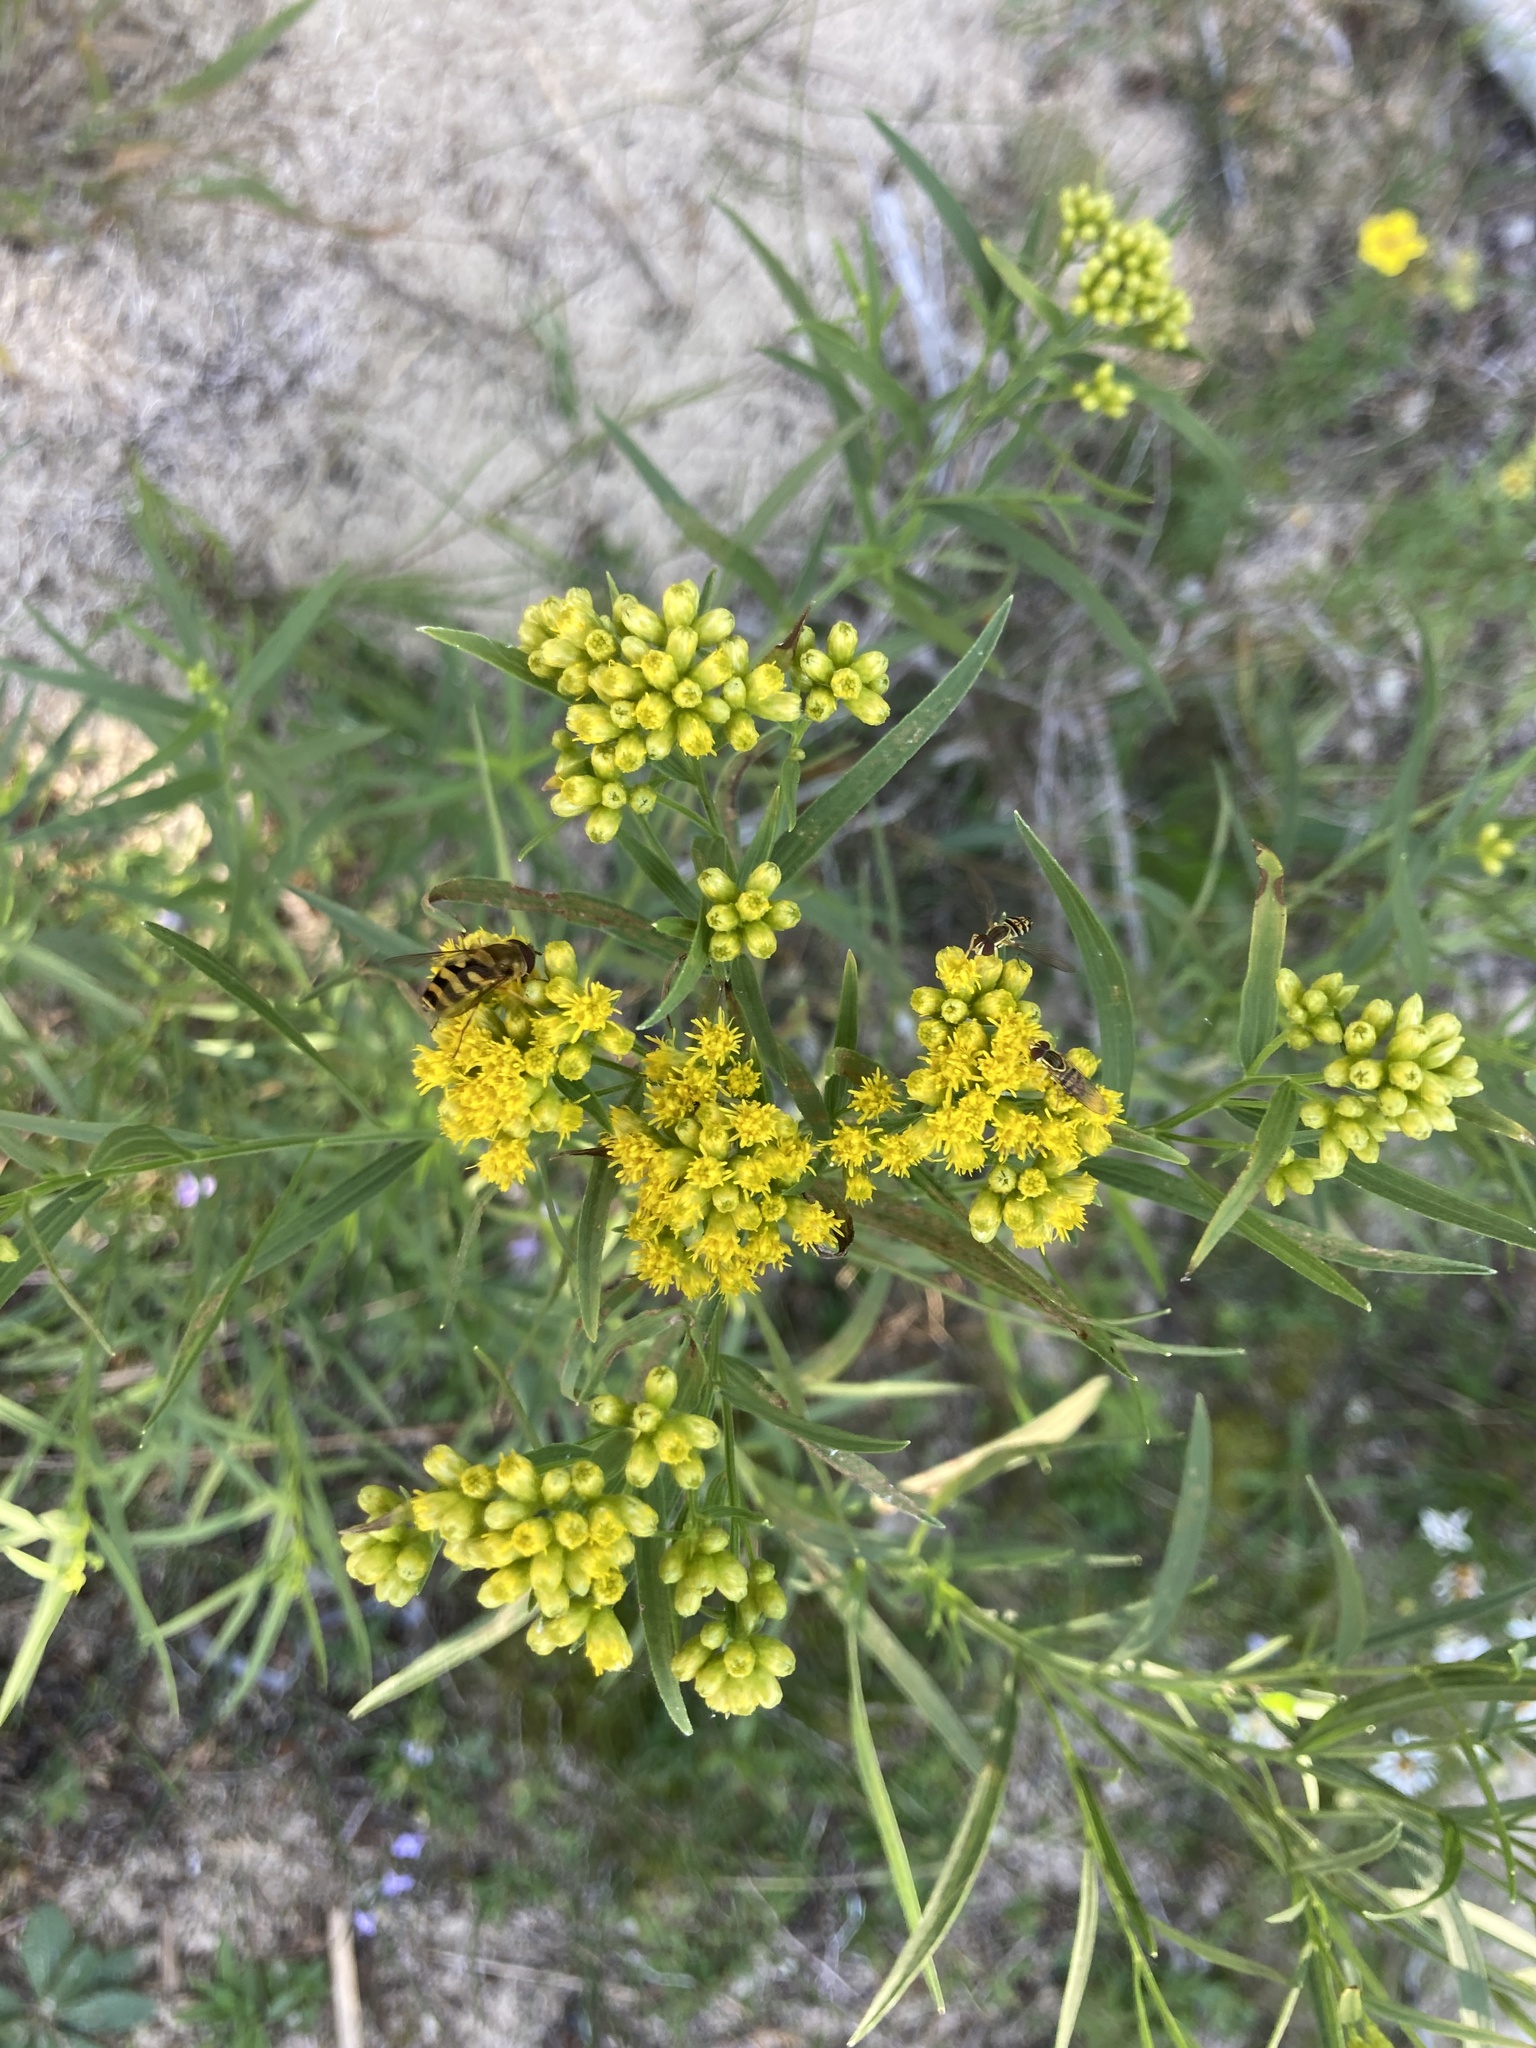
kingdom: Plantae
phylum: Tracheophyta
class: Magnoliopsida
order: Asterales
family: Asteraceae
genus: Euthamia
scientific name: Euthamia graminifolia
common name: Common goldentop
